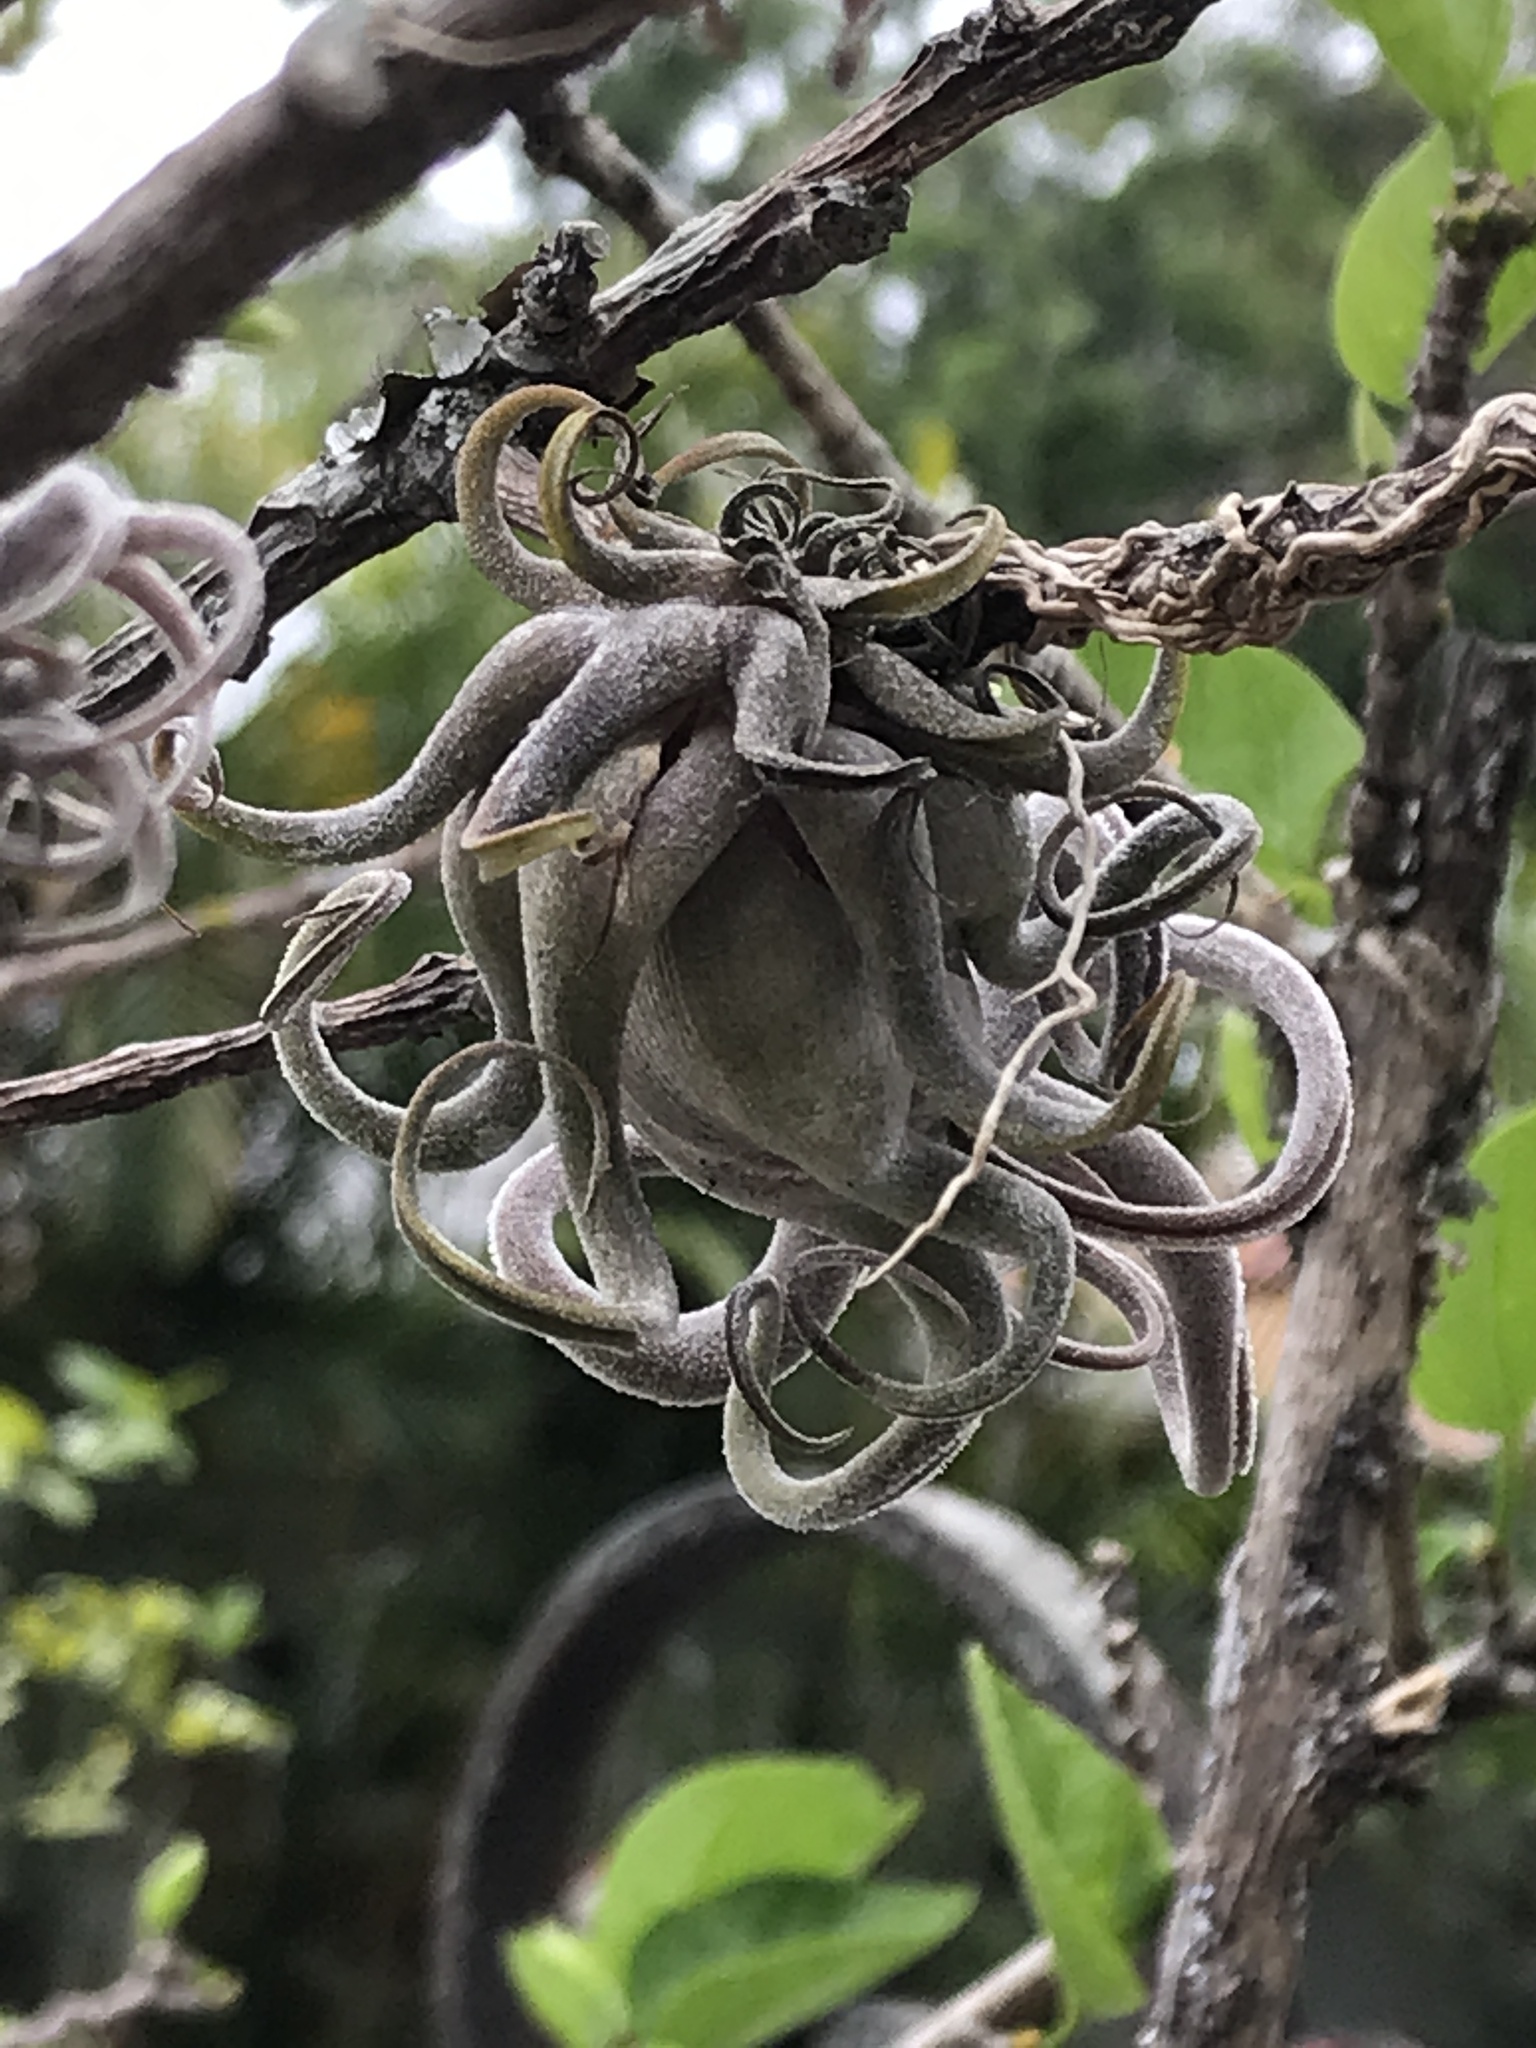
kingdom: Plantae
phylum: Tracheophyta
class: Liliopsida
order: Poales
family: Bromeliaceae
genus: Tillandsia
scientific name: Tillandsia caput-medusae
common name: Octopus plant
